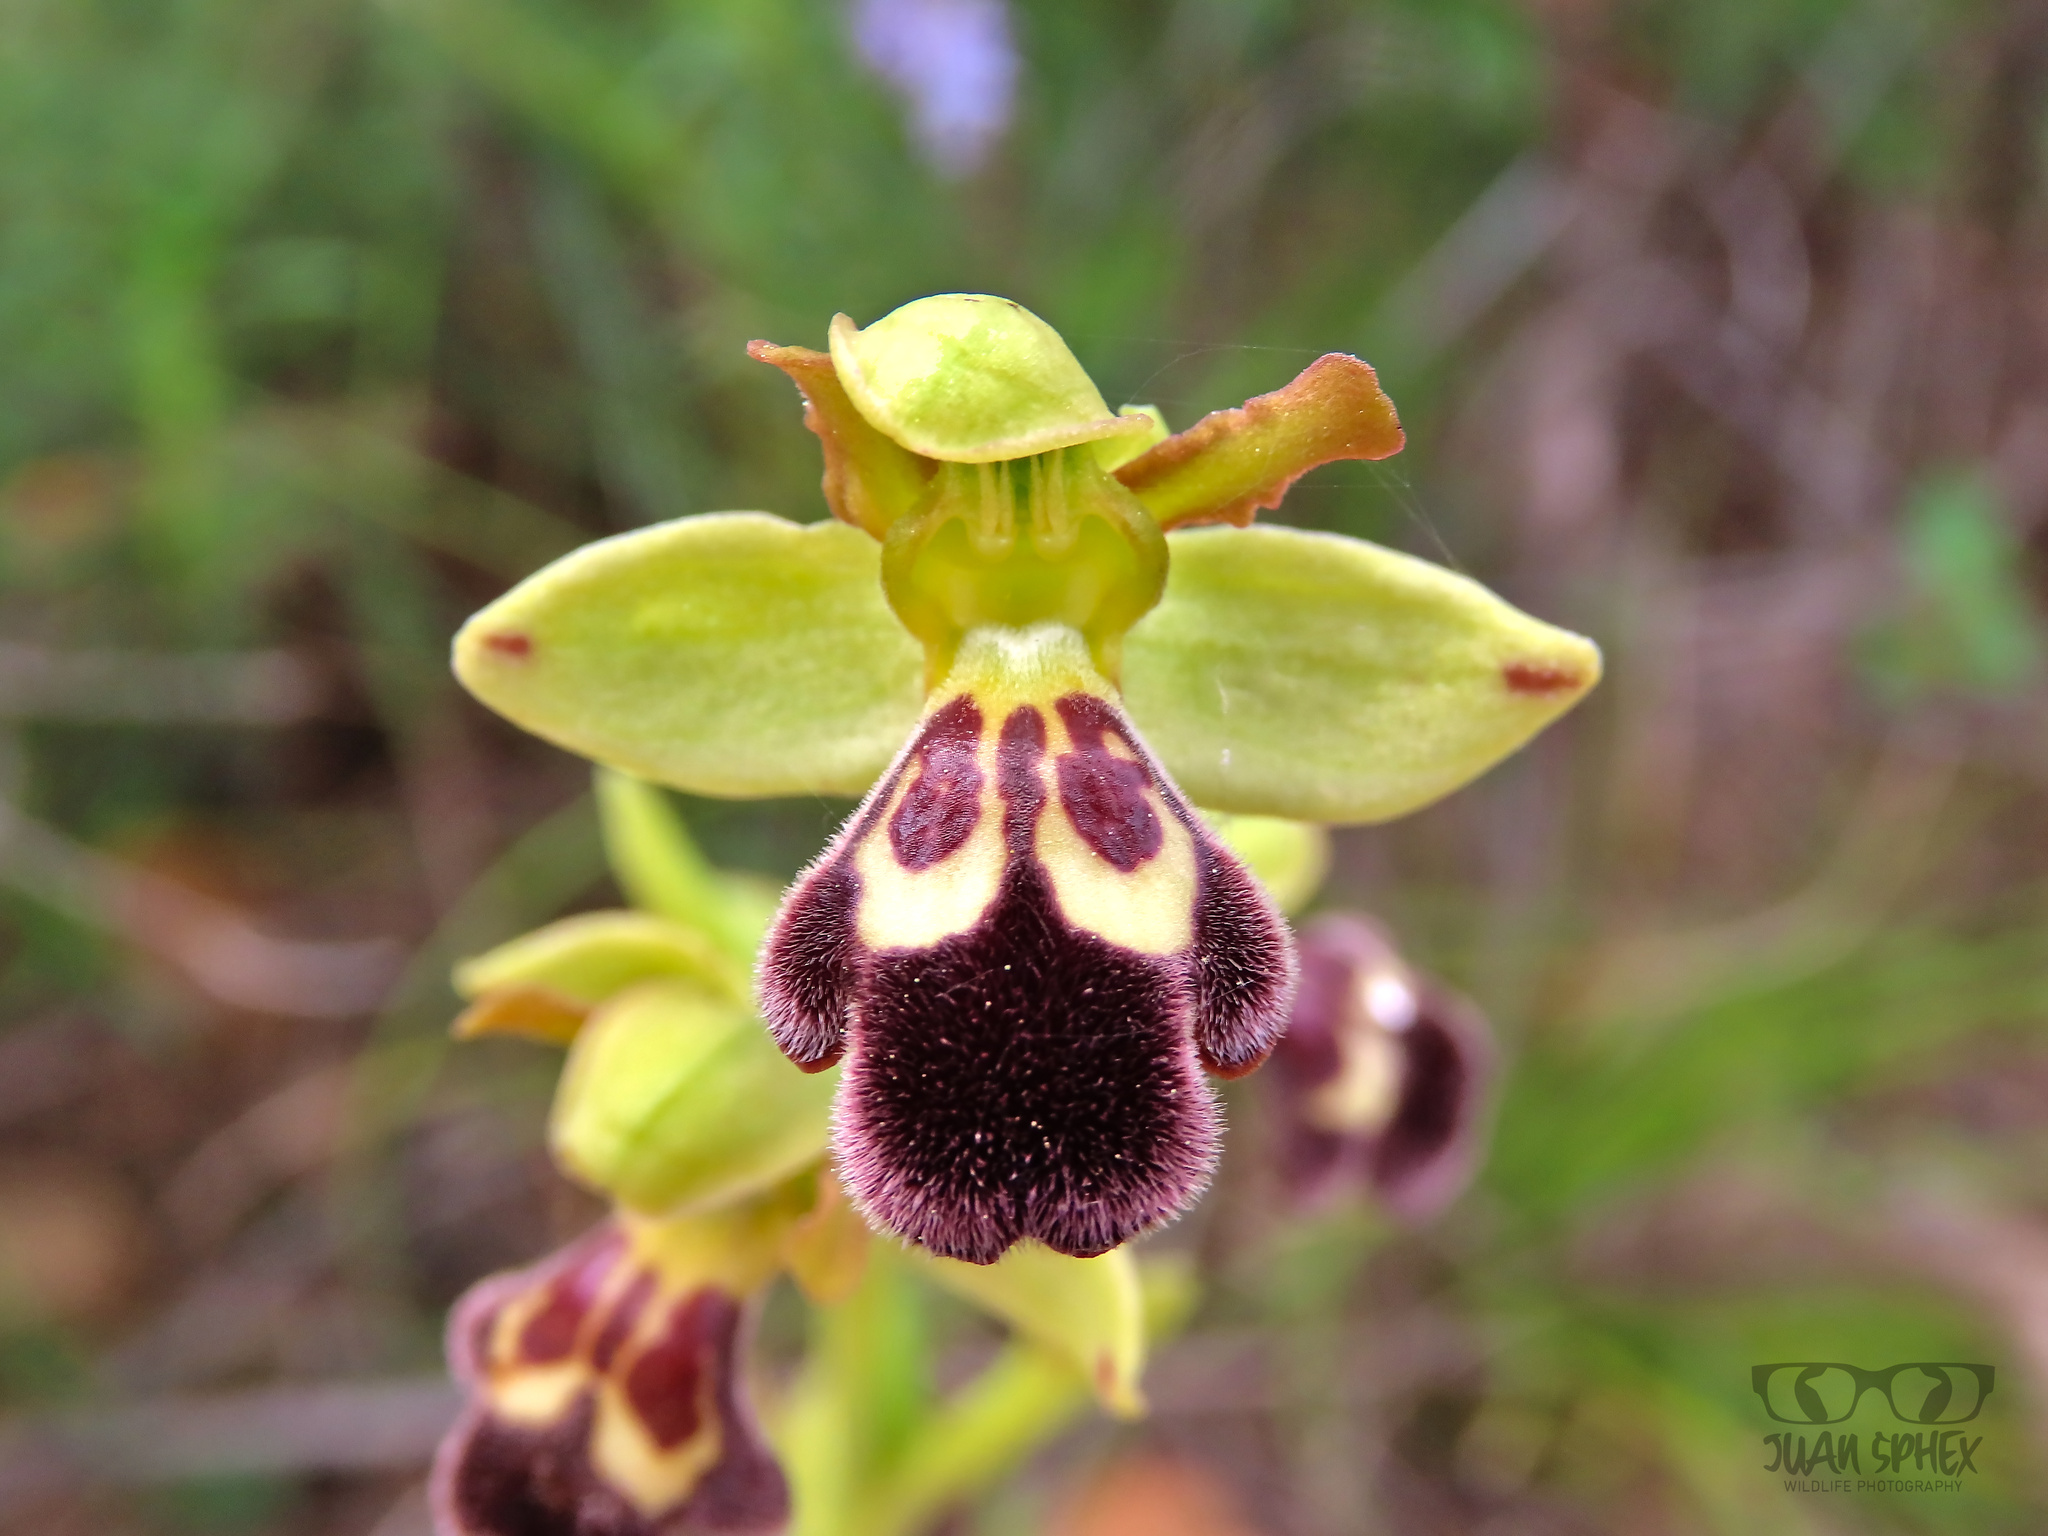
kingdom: Plantae
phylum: Tracheophyta
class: Liliopsida
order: Asparagales
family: Orchidaceae
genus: Ophrys
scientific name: Ophrys omegaifera
